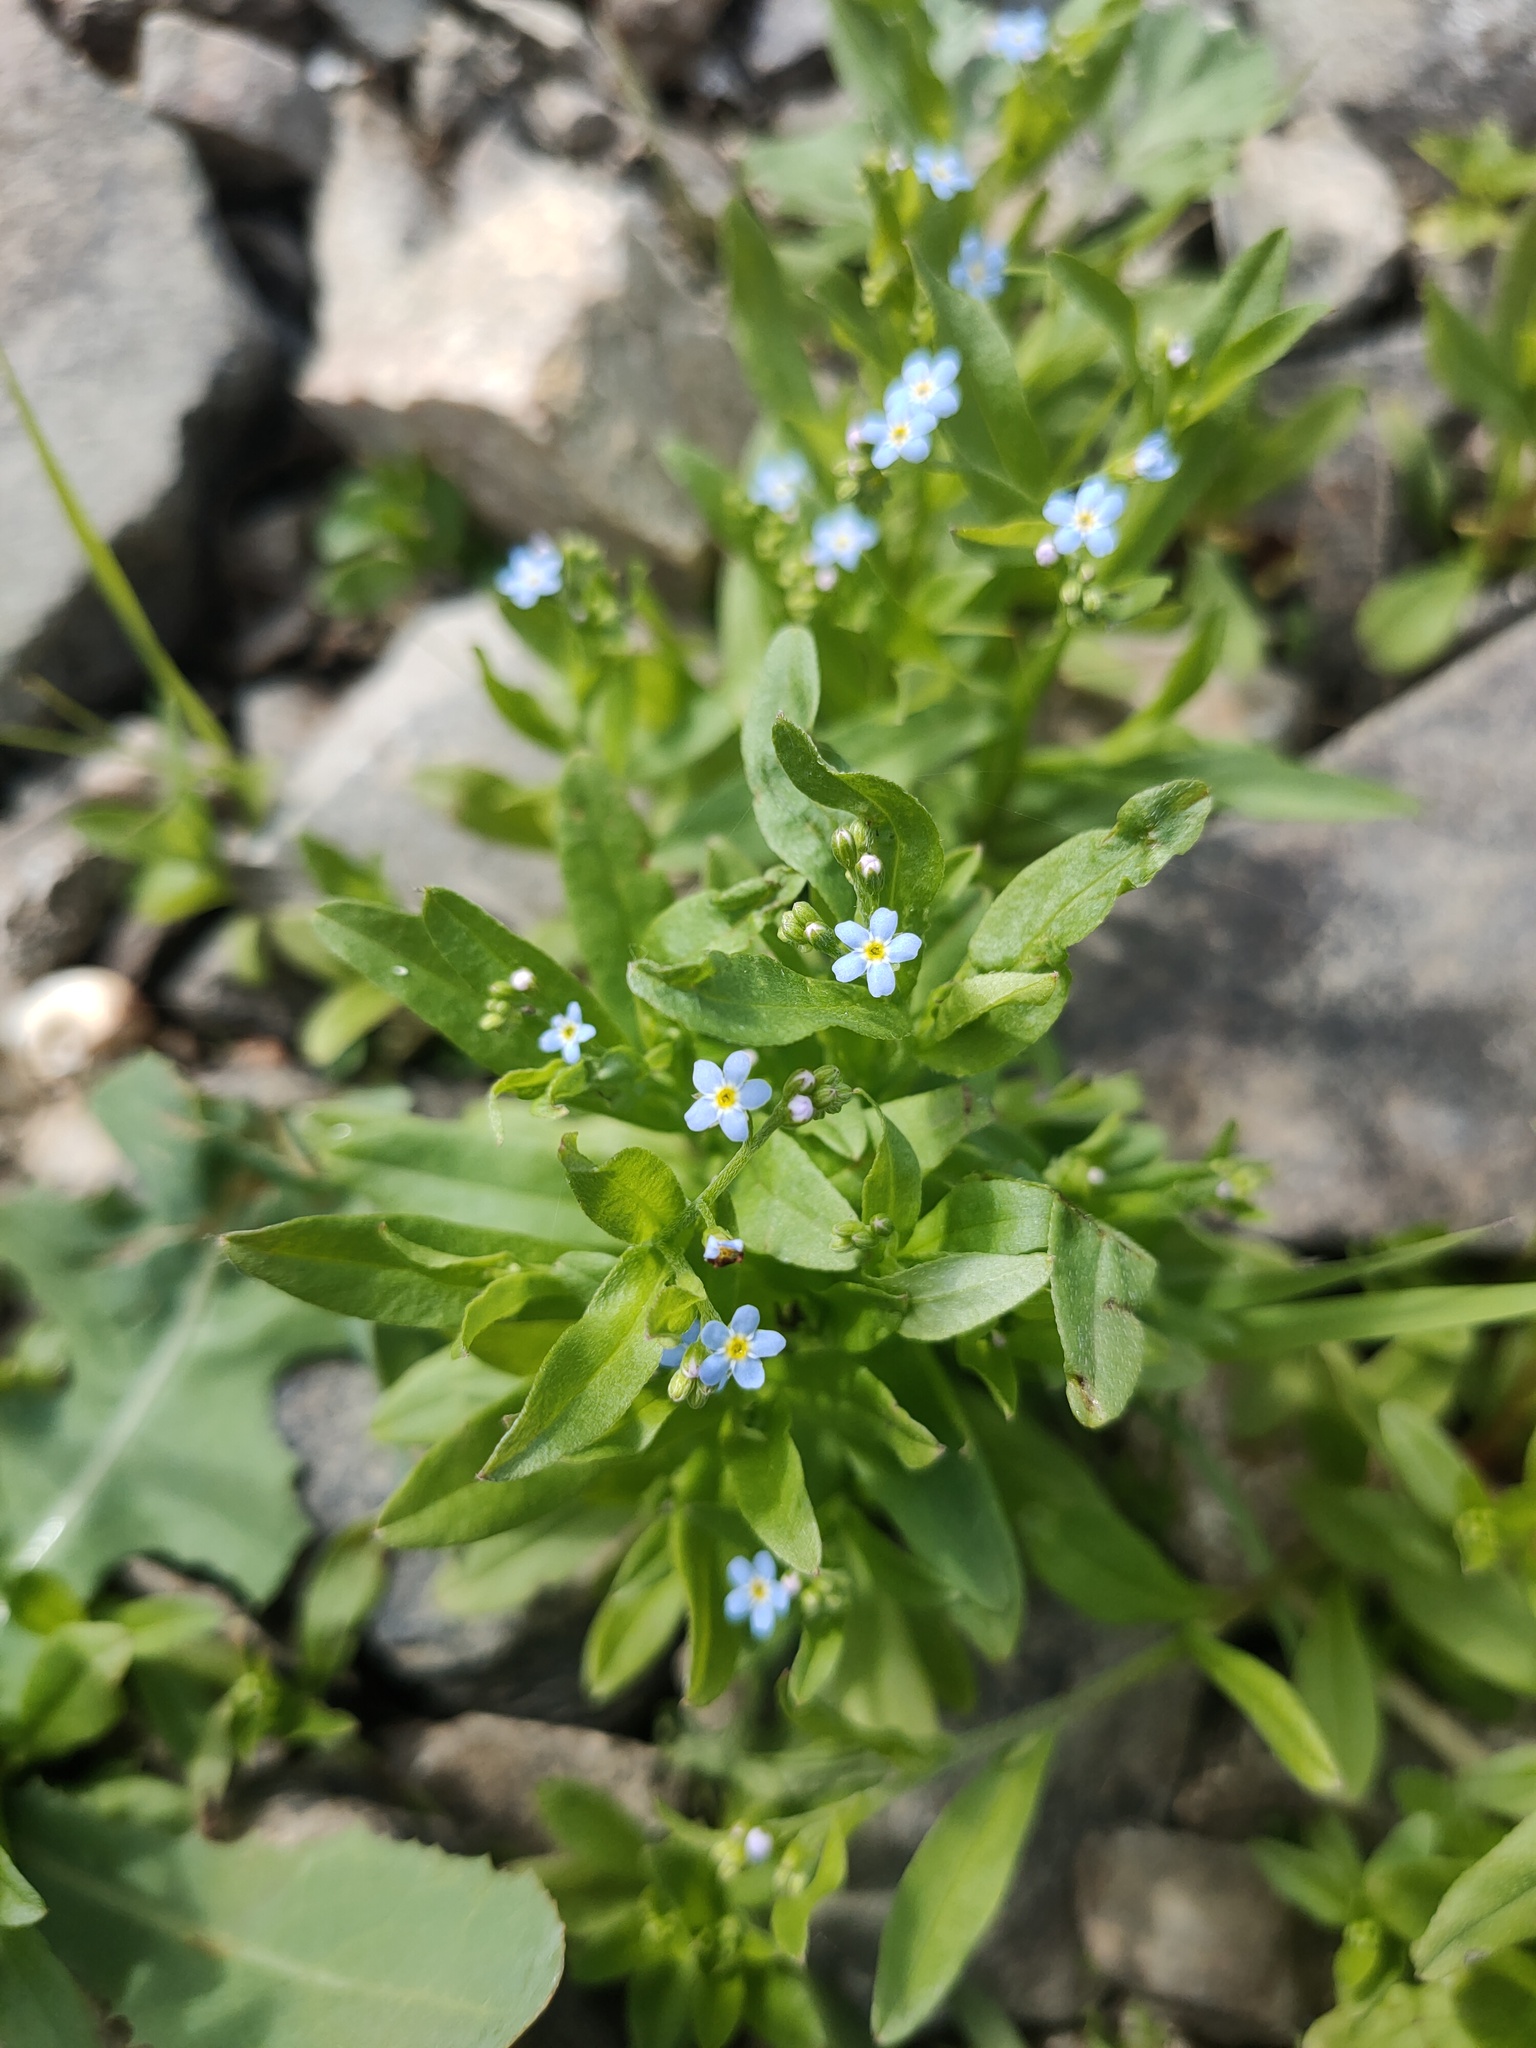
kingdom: Plantae
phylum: Tracheophyta
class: Magnoliopsida
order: Boraginales
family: Boraginaceae
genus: Myosotis
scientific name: Myosotis laxa
